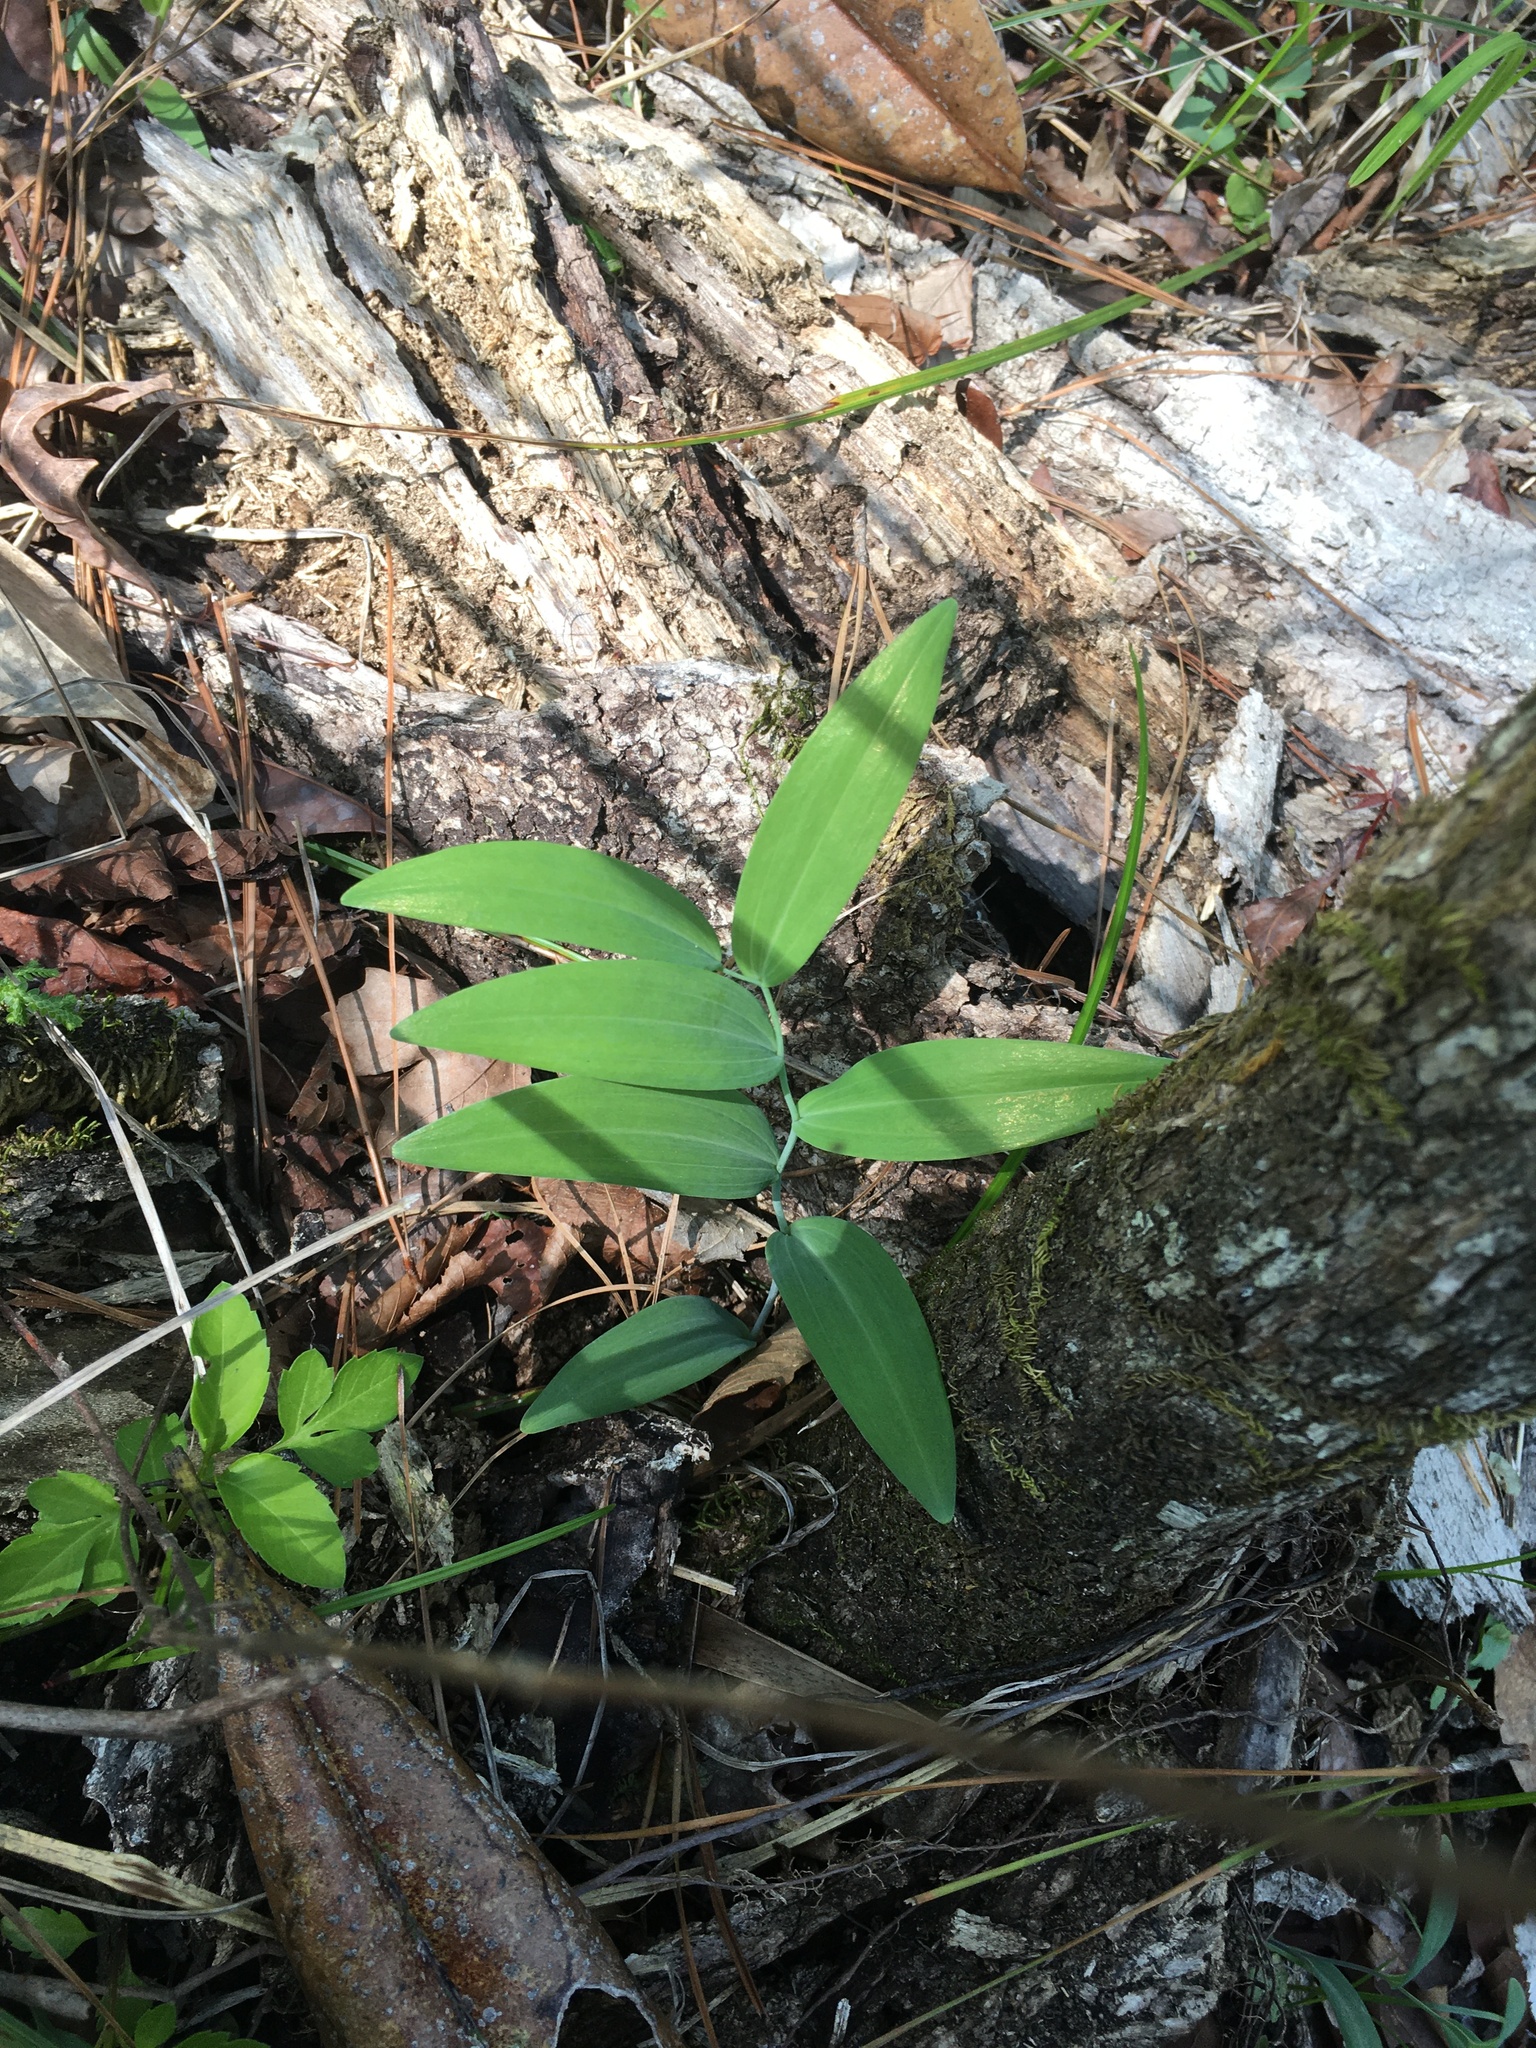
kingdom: Plantae
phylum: Tracheophyta
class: Liliopsida
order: Asparagales
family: Asparagaceae
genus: Polygonatum
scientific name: Polygonatum biflorum
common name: American solomon's-seal
